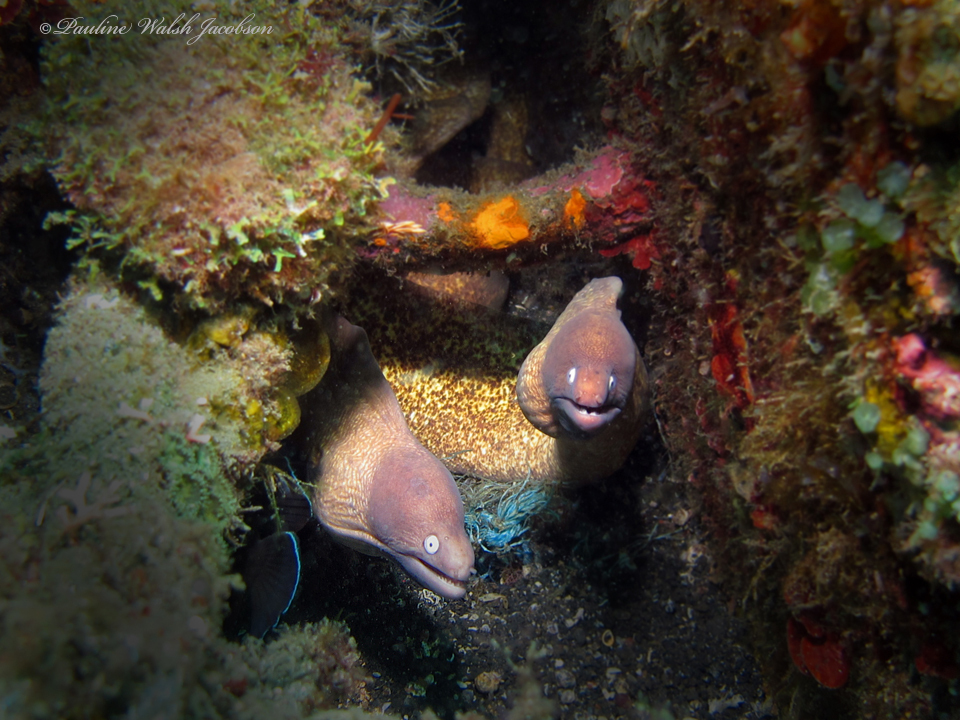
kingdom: Animalia
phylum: Chordata
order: Anguilliformes
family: Muraenidae
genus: Gymnothorax
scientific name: Gymnothorax thyrsoideus
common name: Greyface moray
